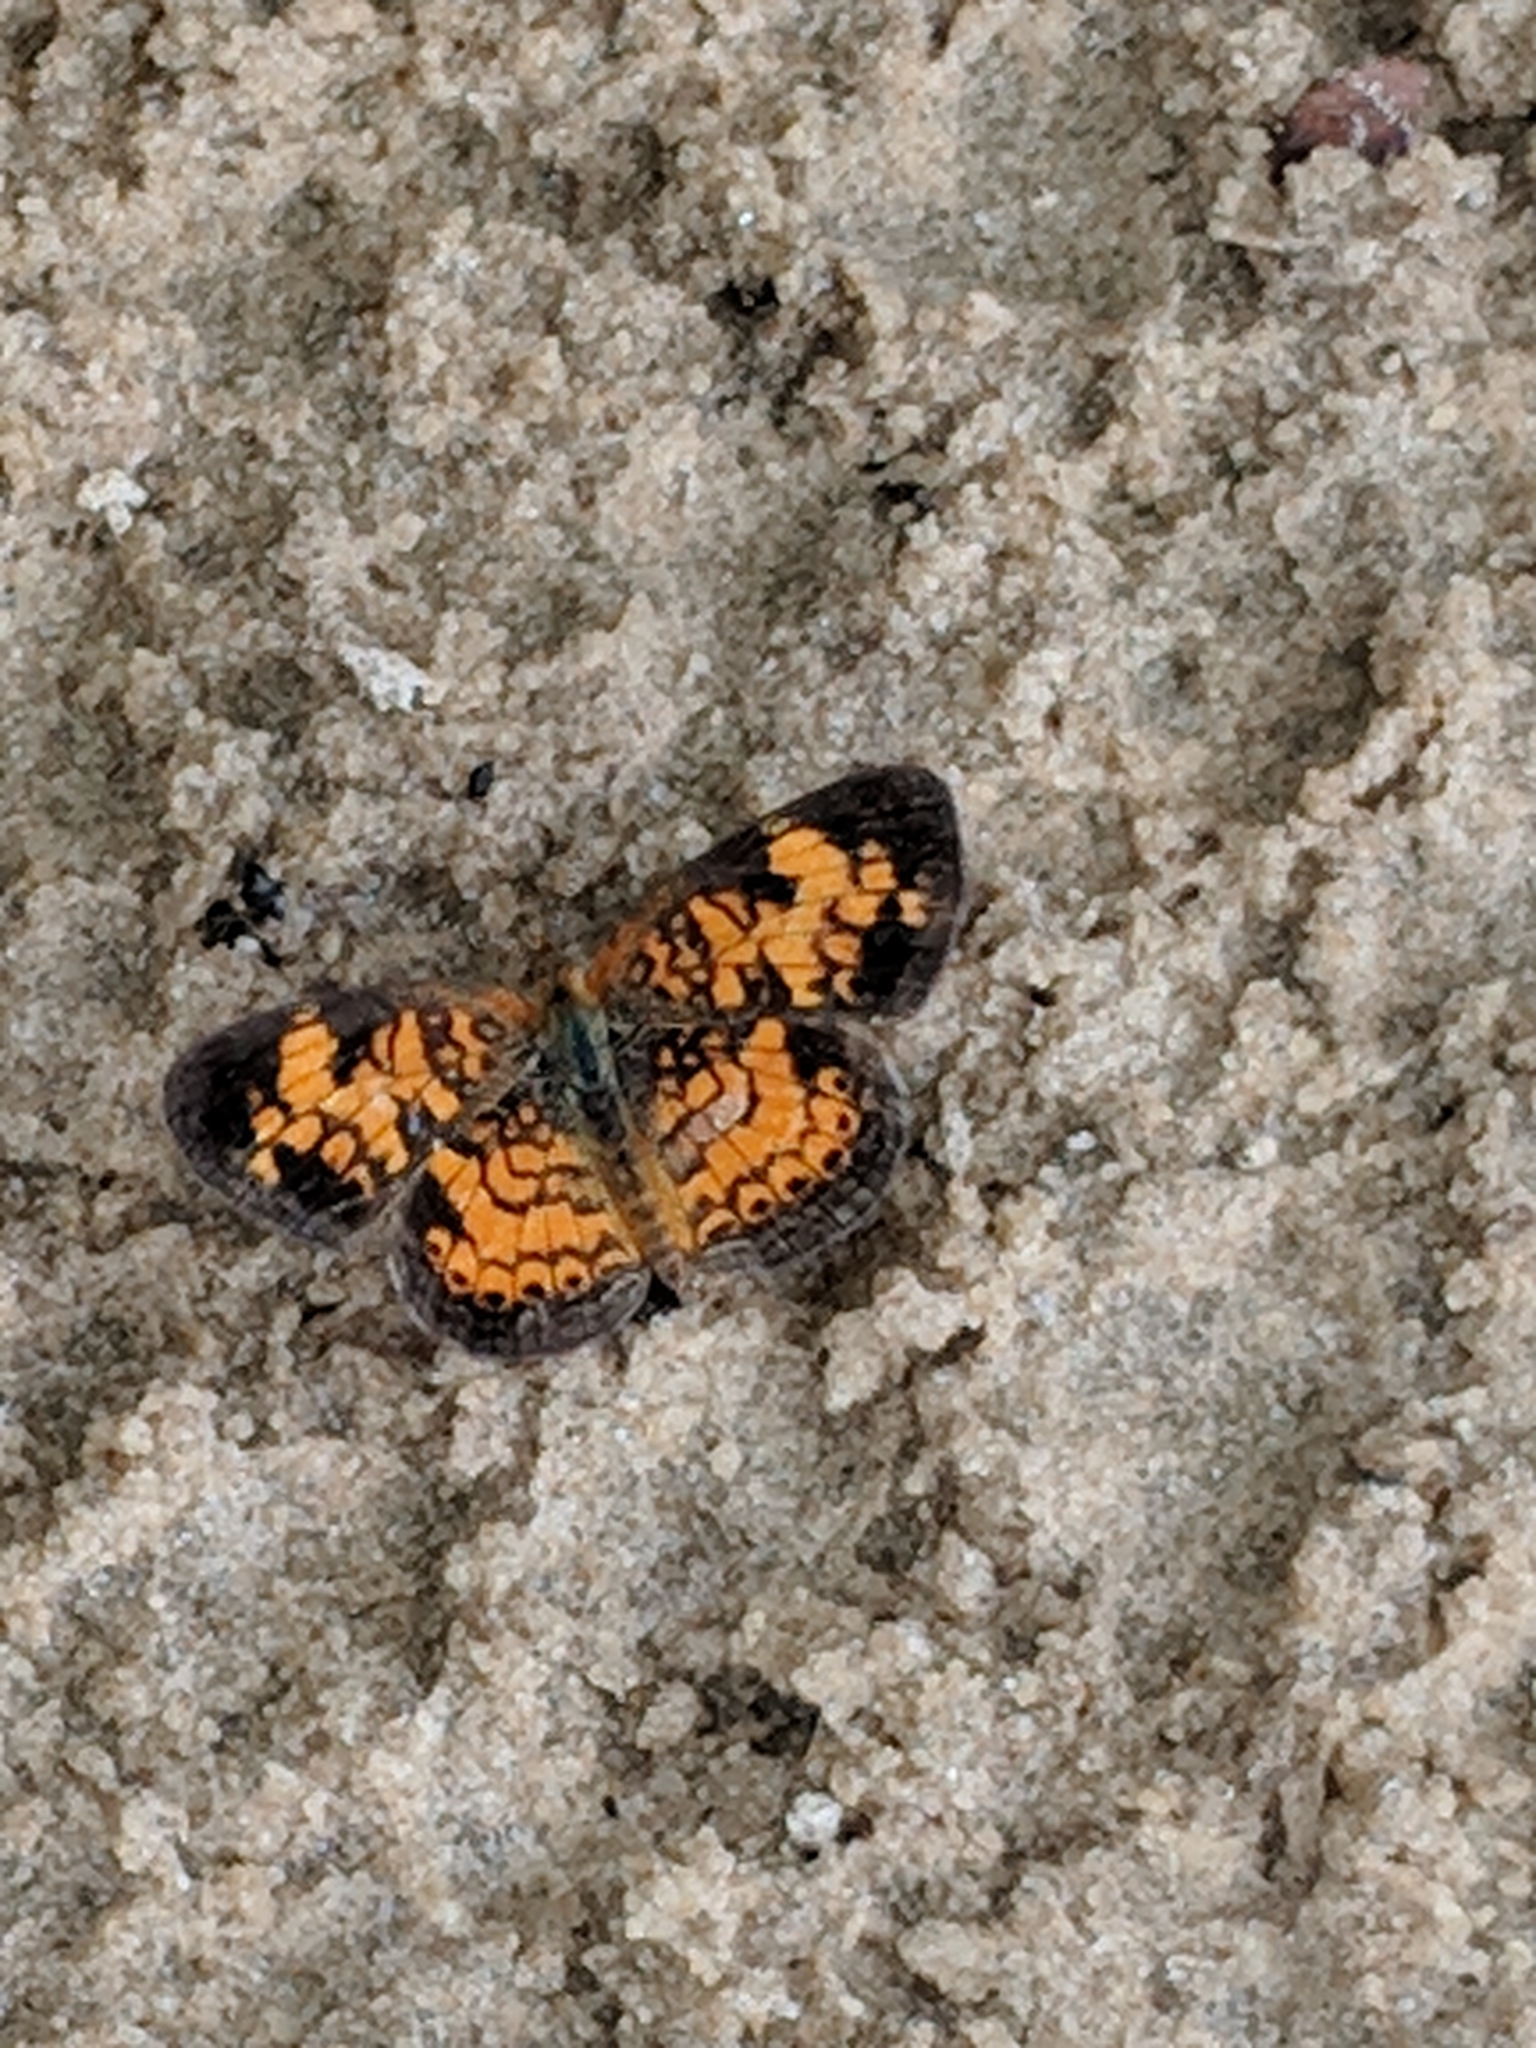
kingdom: Animalia
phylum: Arthropoda
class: Insecta
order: Lepidoptera
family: Nymphalidae
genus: Phyciodes
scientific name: Phyciodes tharos
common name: Pearl crescent
